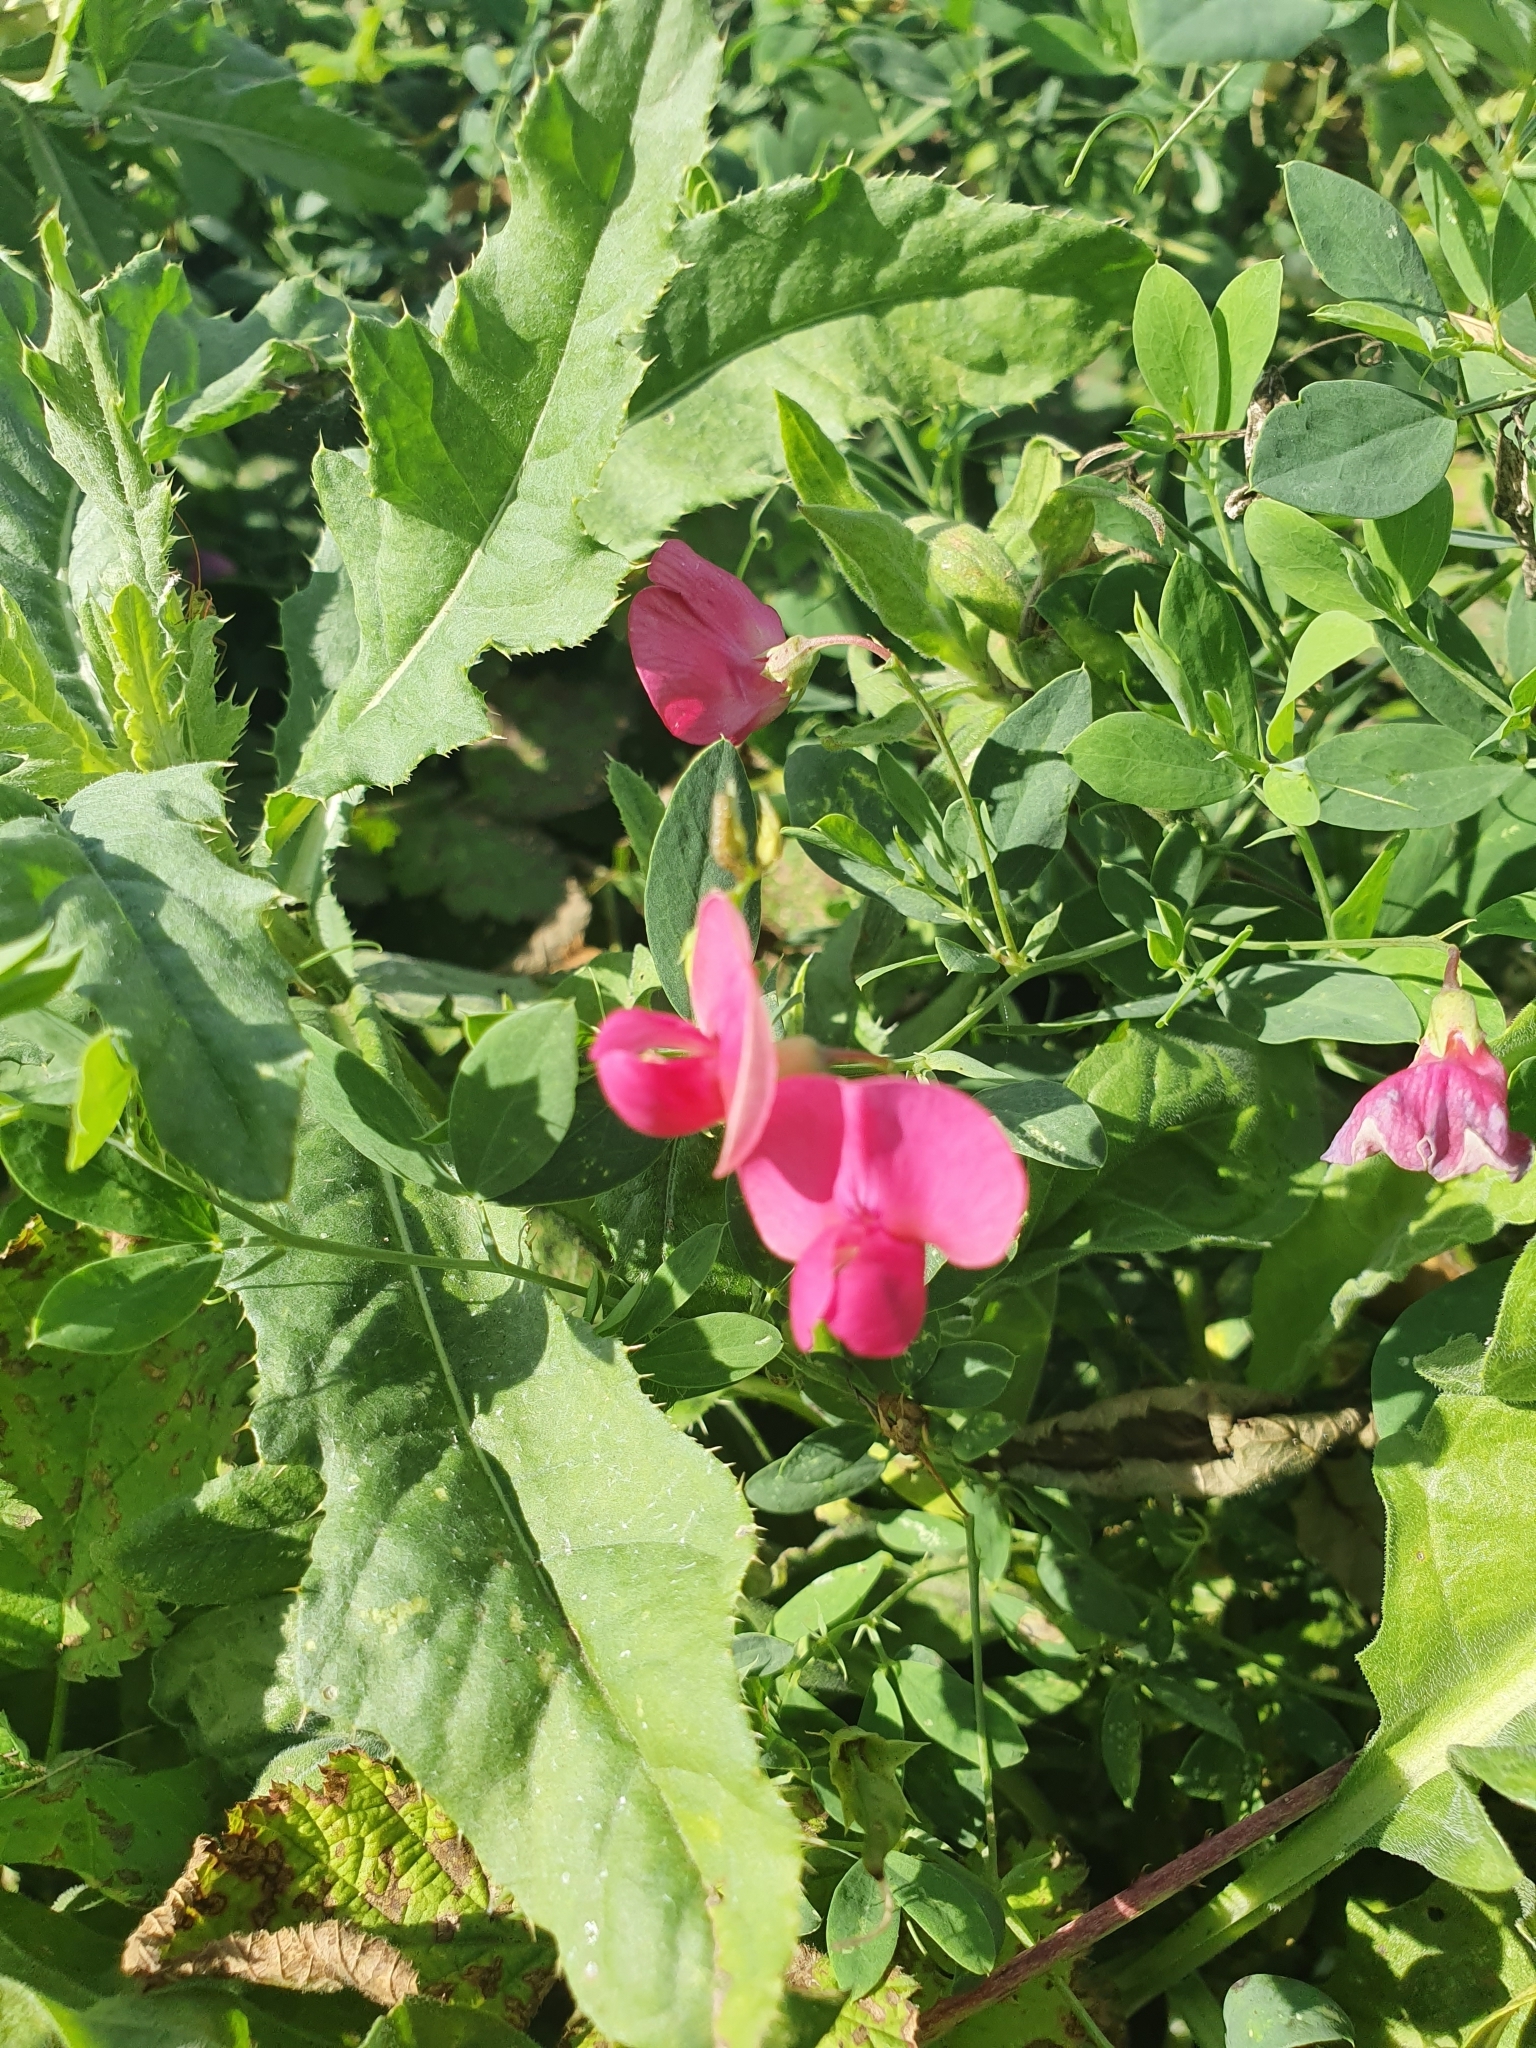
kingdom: Plantae
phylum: Tracheophyta
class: Magnoliopsida
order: Fabales
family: Fabaceae
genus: Lathyrus
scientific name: Lathyrus tuberosus
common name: Tuberous pea
